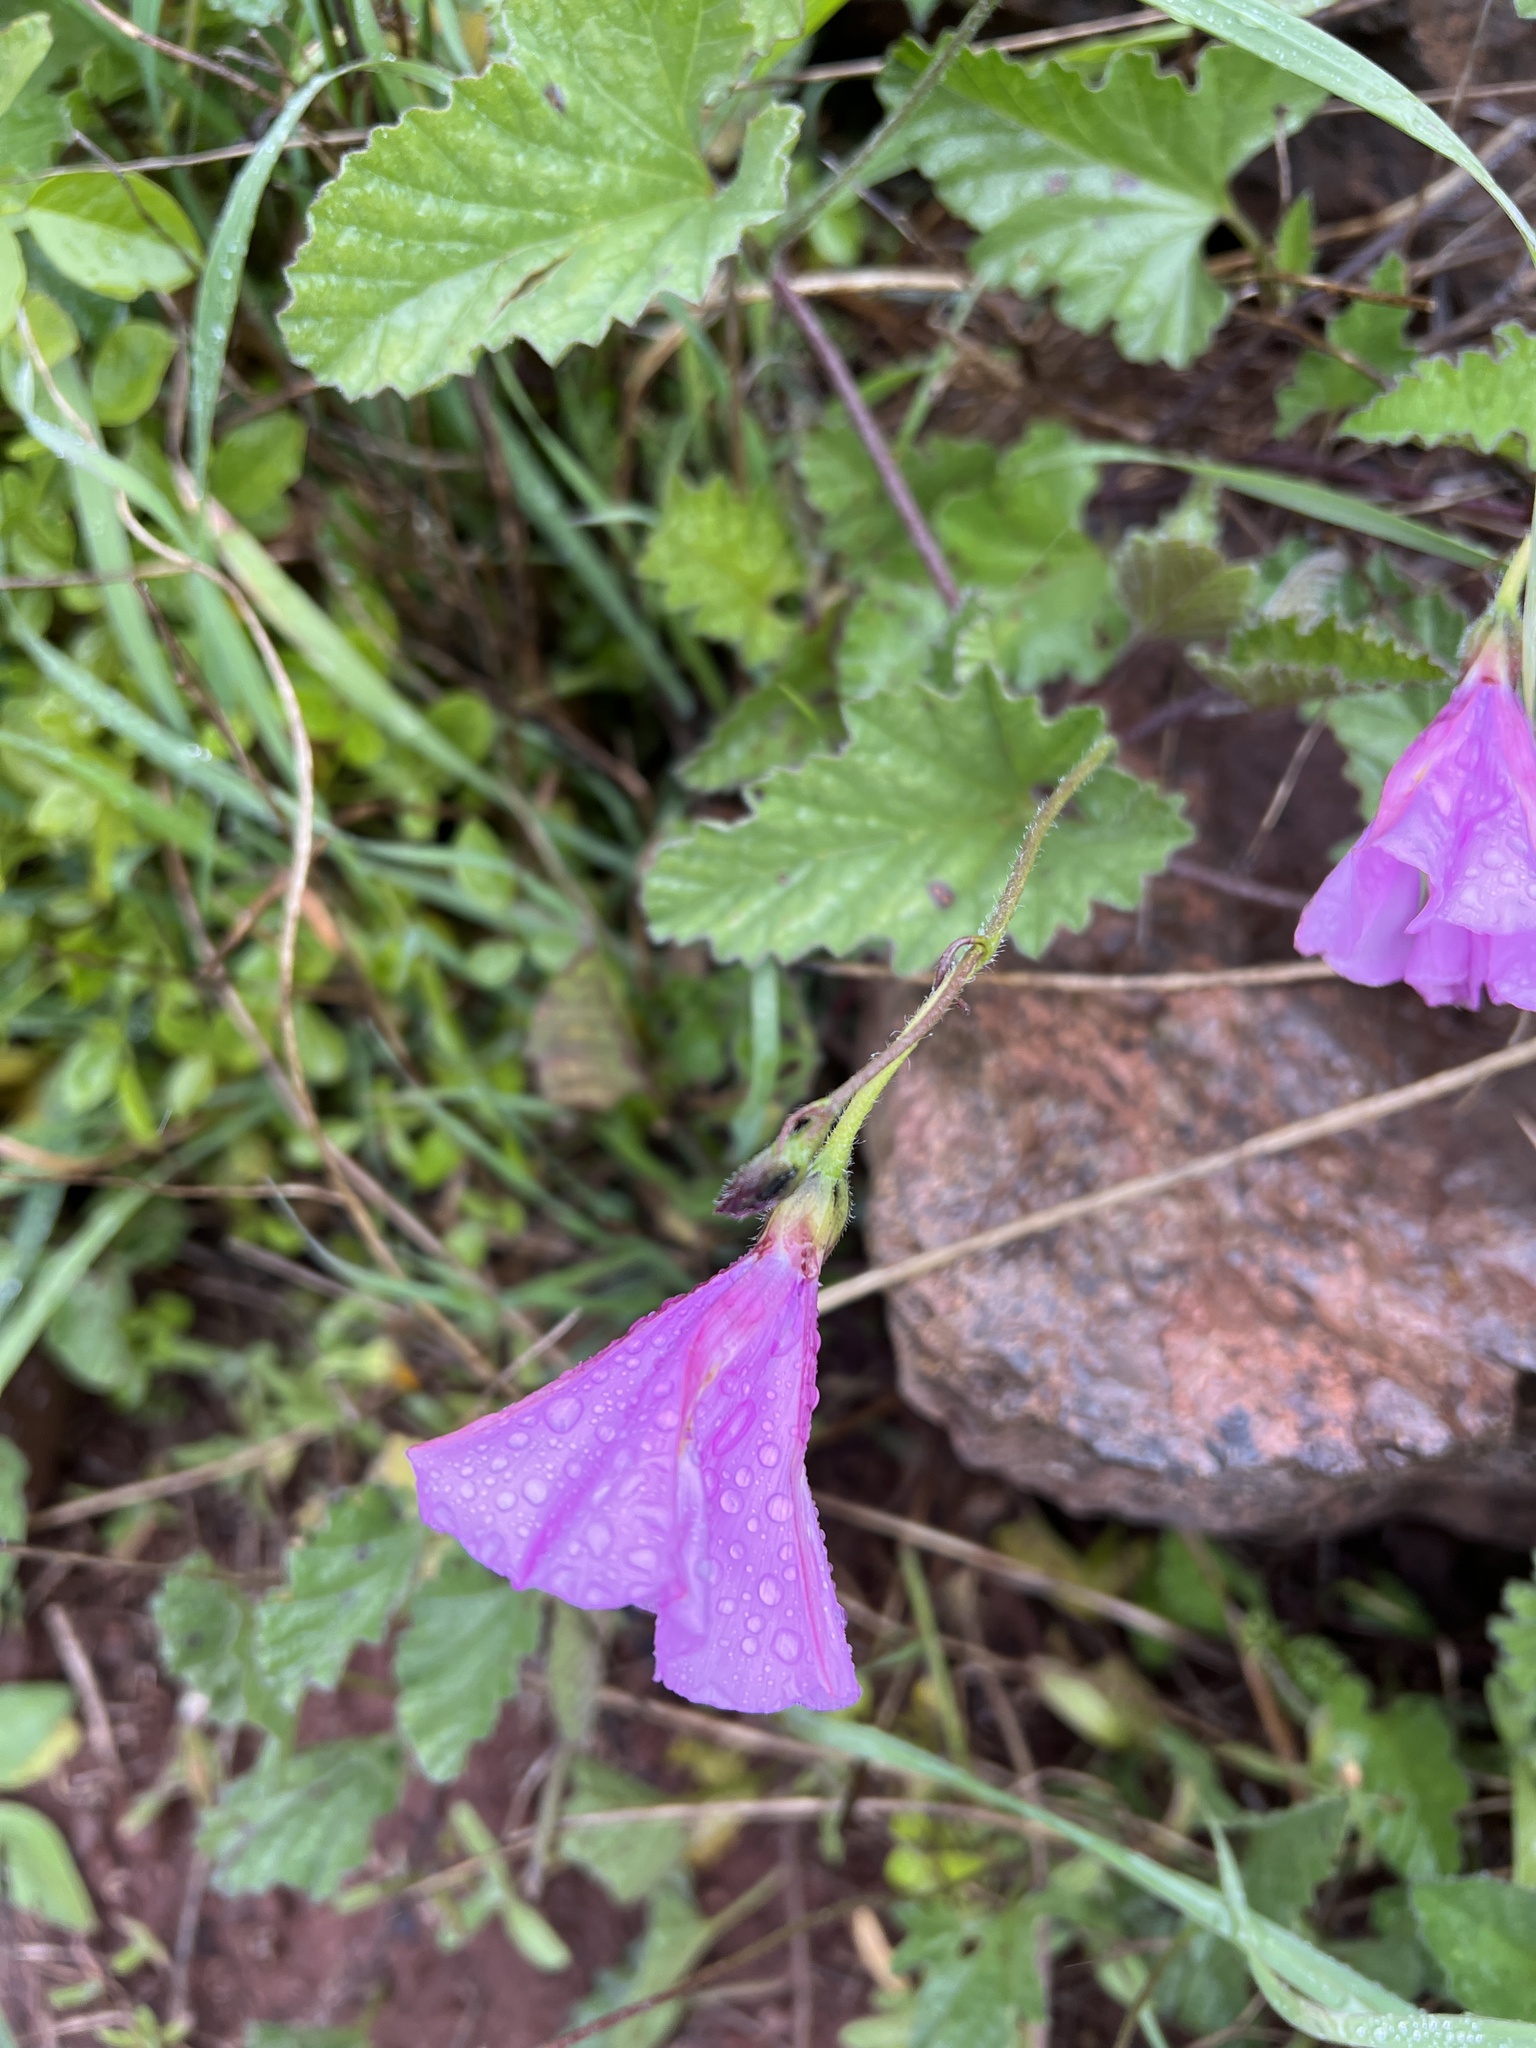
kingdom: Plantae
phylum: Tracheophyta
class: Magnoliopsida
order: Solanales
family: Convolvulaceae
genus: Convolvulus
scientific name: Convolvulus althaeoides
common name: Mallow bindweed
